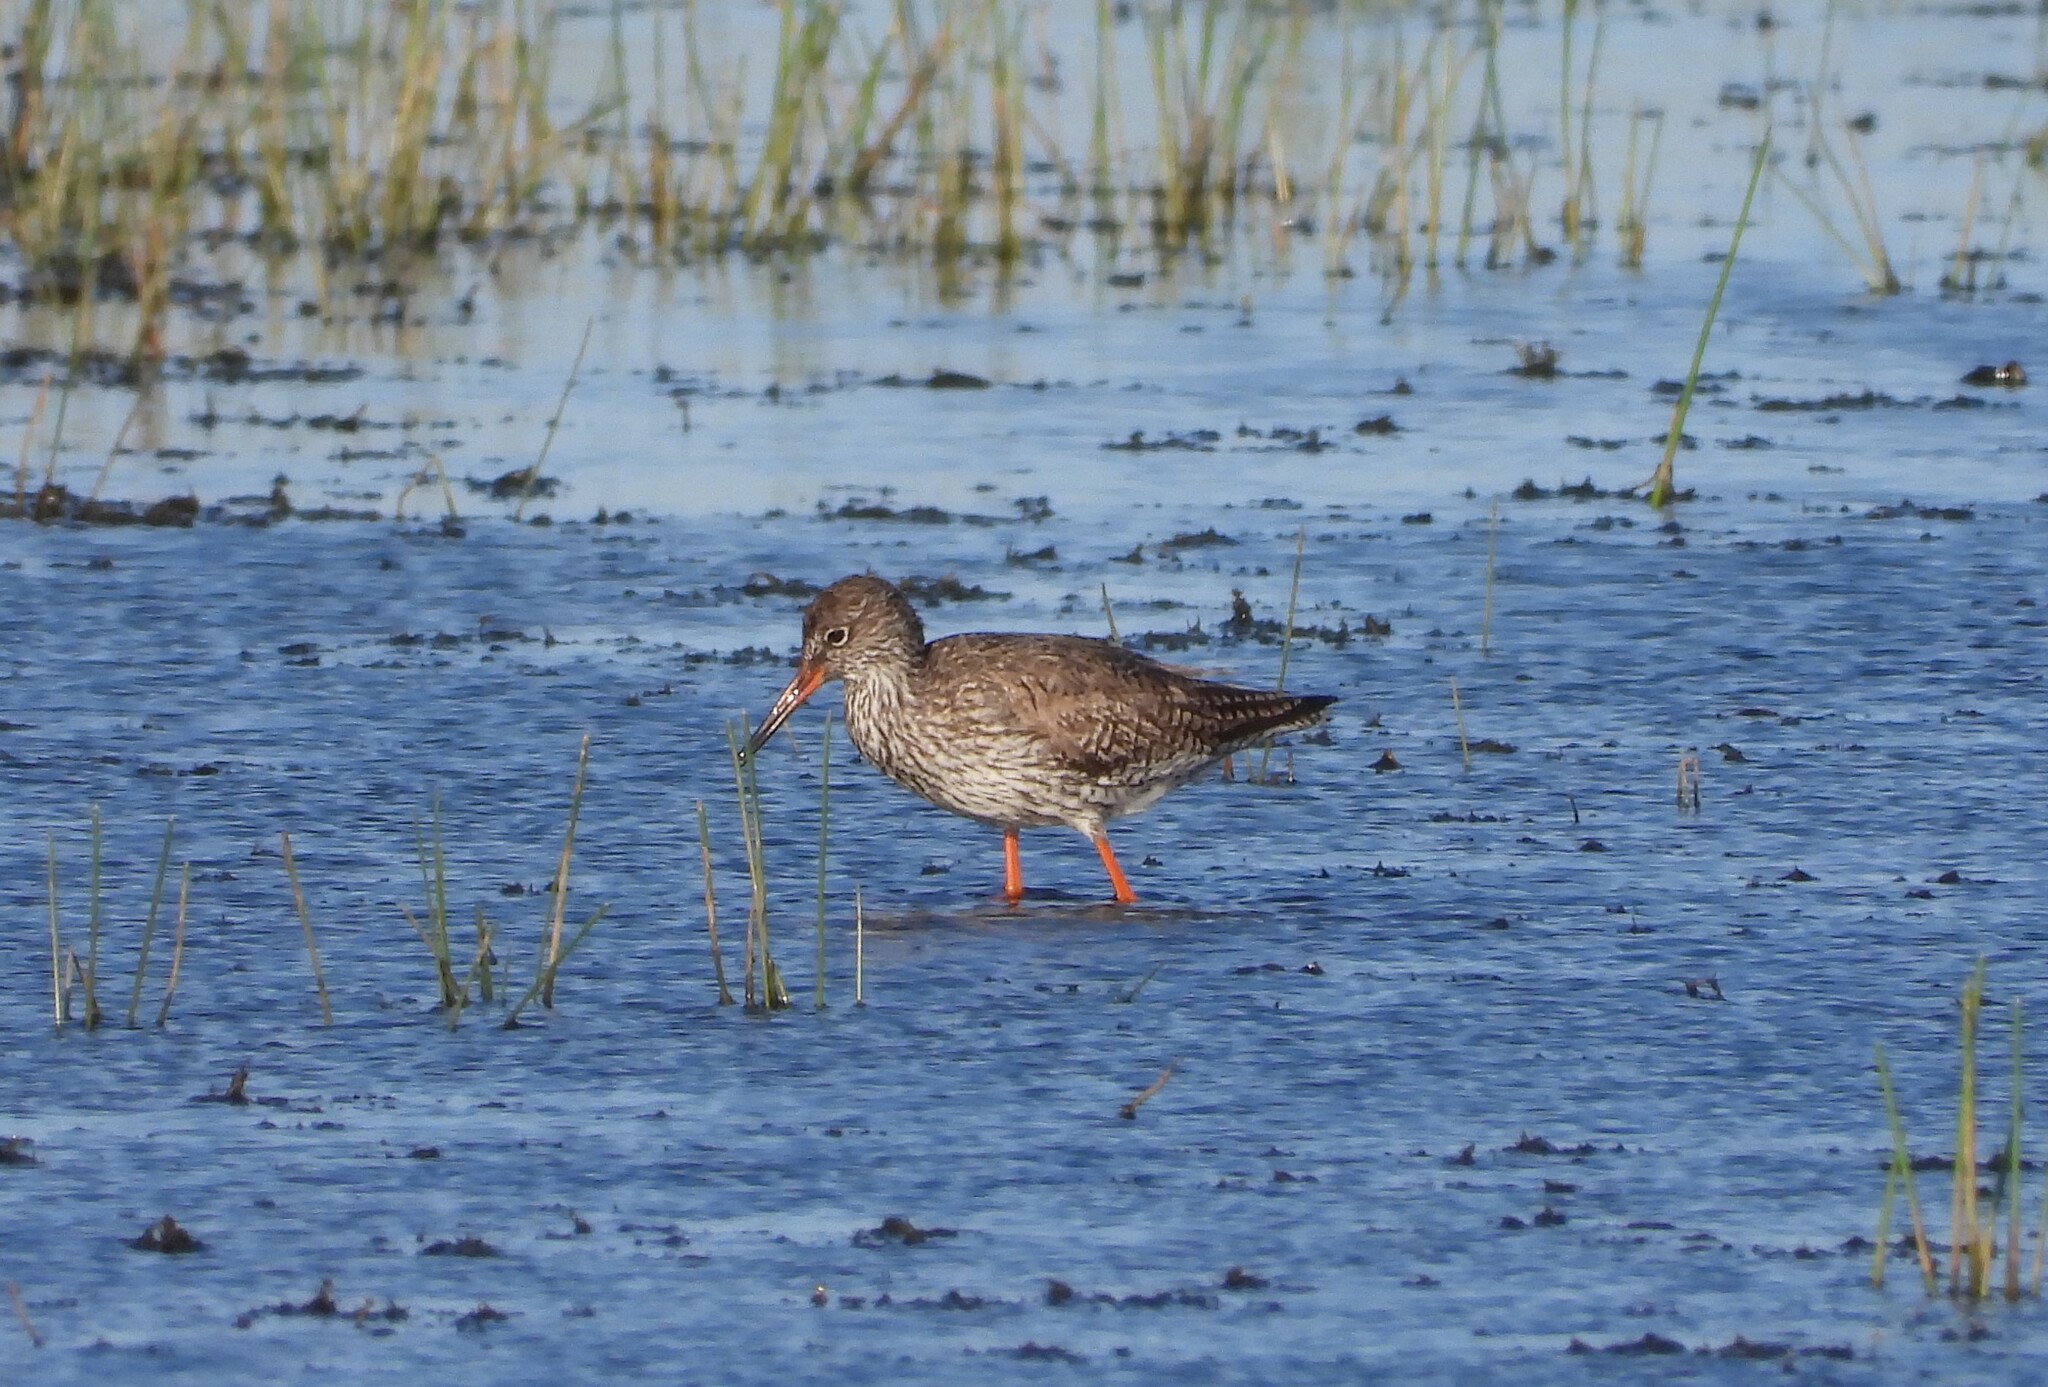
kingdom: Animalia
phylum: Chordata
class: Aves
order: Charadriiformes
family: Scolopacidae
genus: Tringa
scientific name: Tringa totanus
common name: Common redshank
